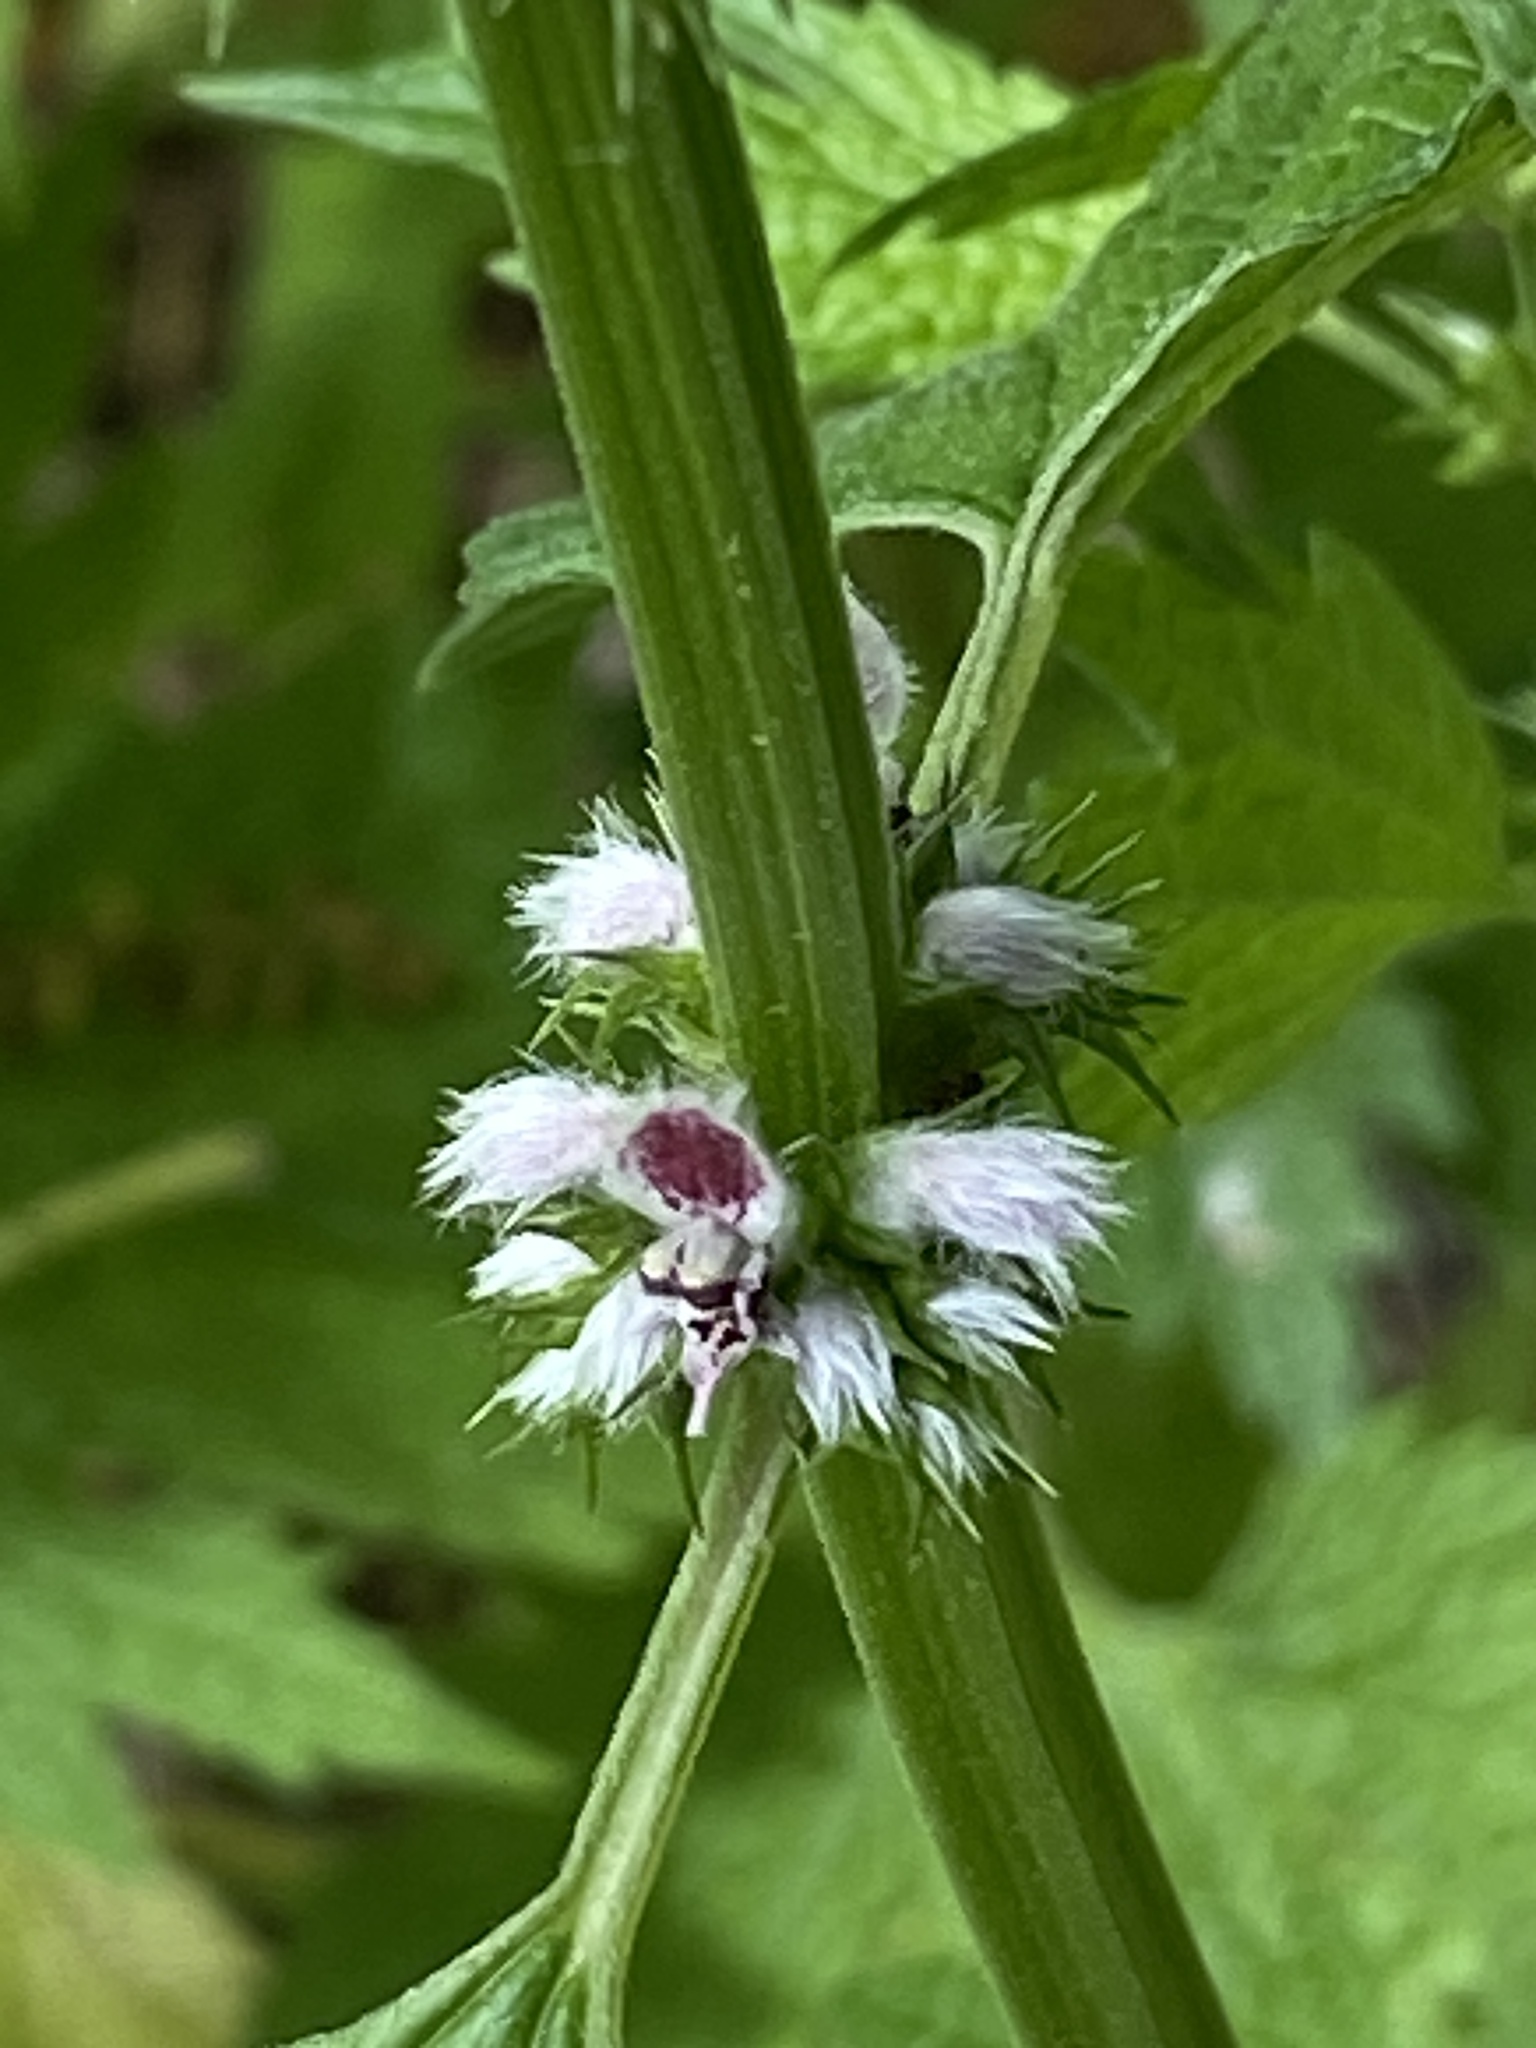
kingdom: Plantae
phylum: Tracheophyta
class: Magnoliopsida
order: Lamiales
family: Lamiaceae
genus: Leonurus
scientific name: Leonurus cardiaca
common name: Motherwort
